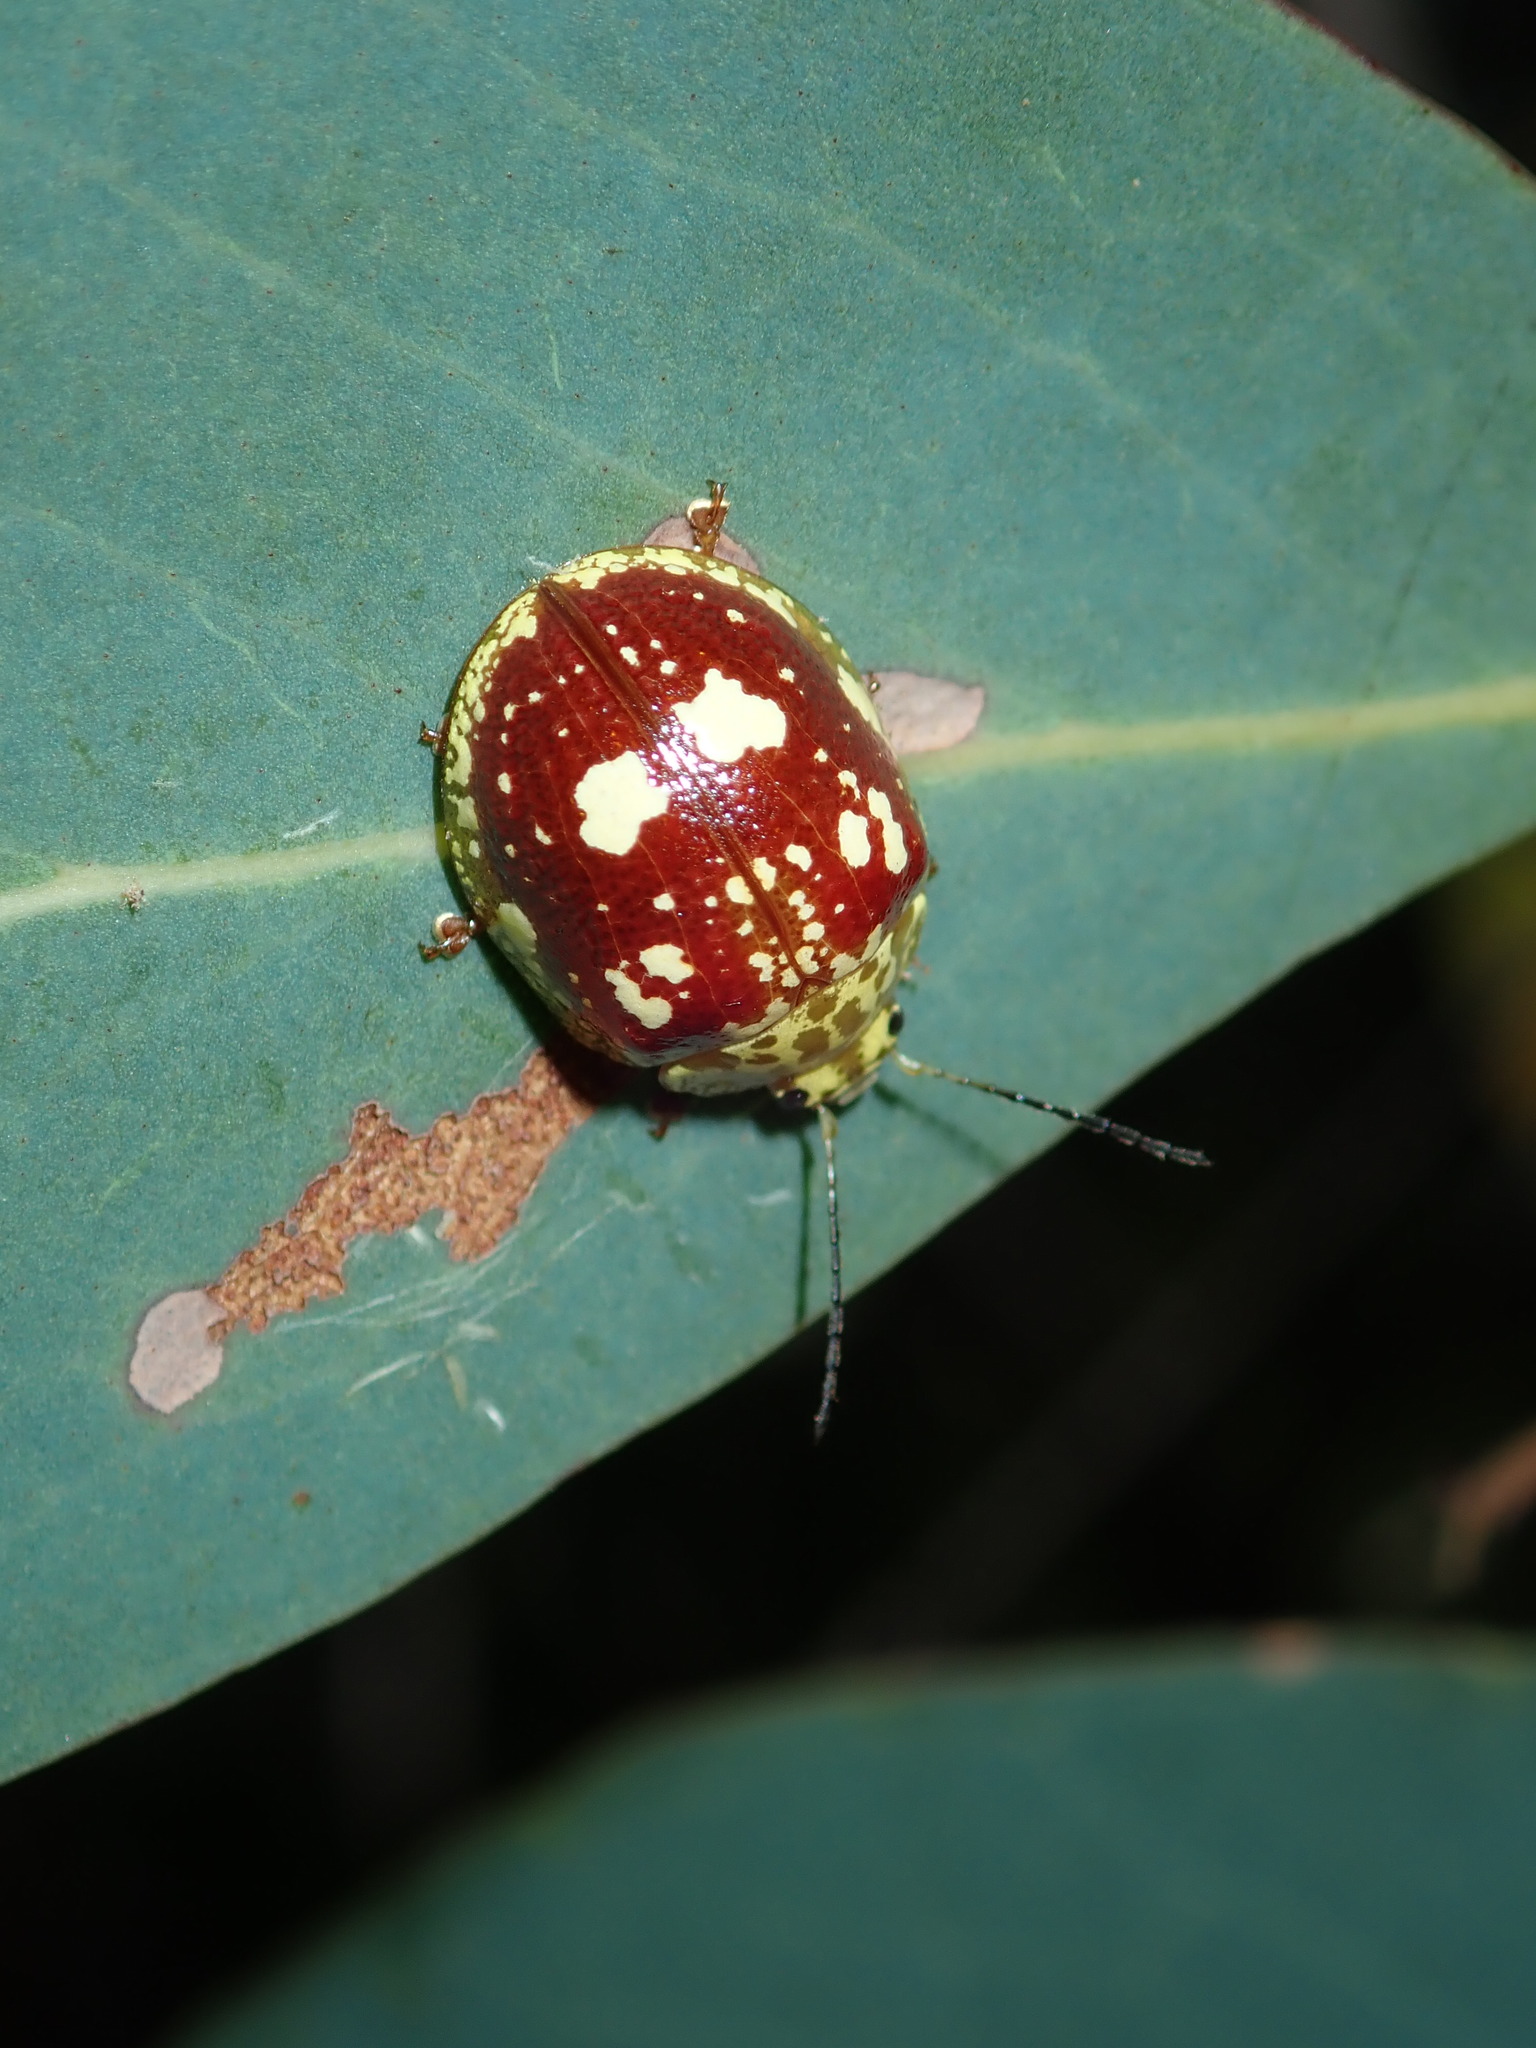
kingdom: Animalia
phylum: Arthropoda
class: Insecta
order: Coleoptera
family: Chrysomelidae
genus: Paropsis
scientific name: Paropsis maculata
